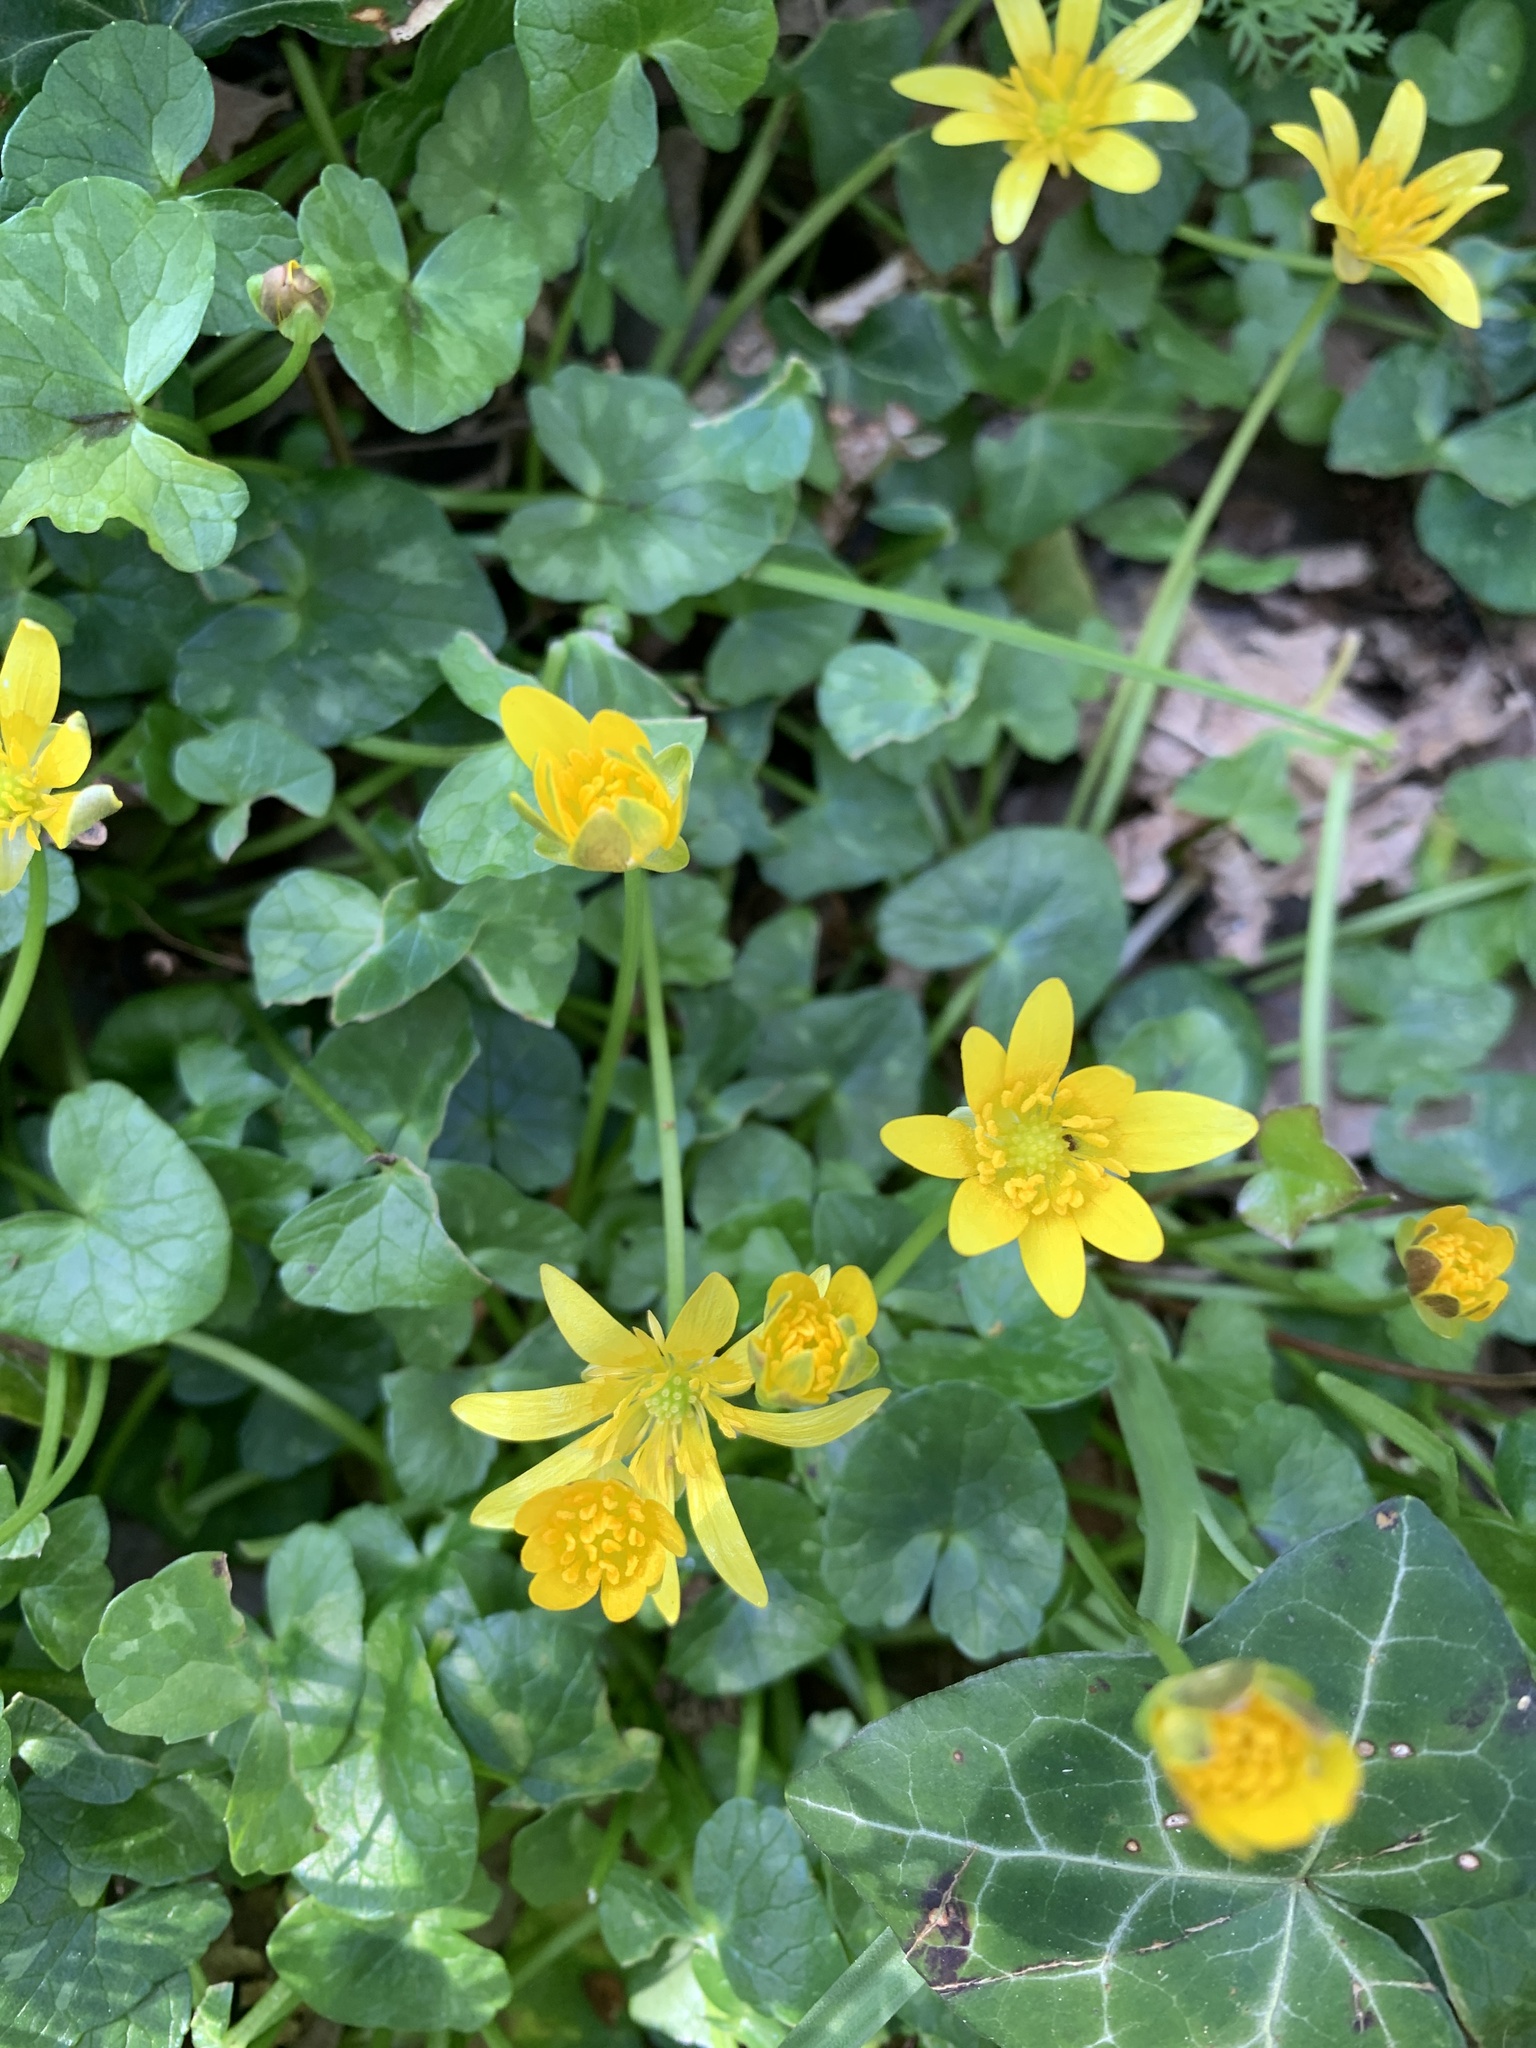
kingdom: Plantae
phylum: Tracheophyta
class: Magnoliopsida
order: Ranunculales
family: Ranunculaceae
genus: Ficaria
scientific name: Ficaria verna
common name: Lesser celandine
